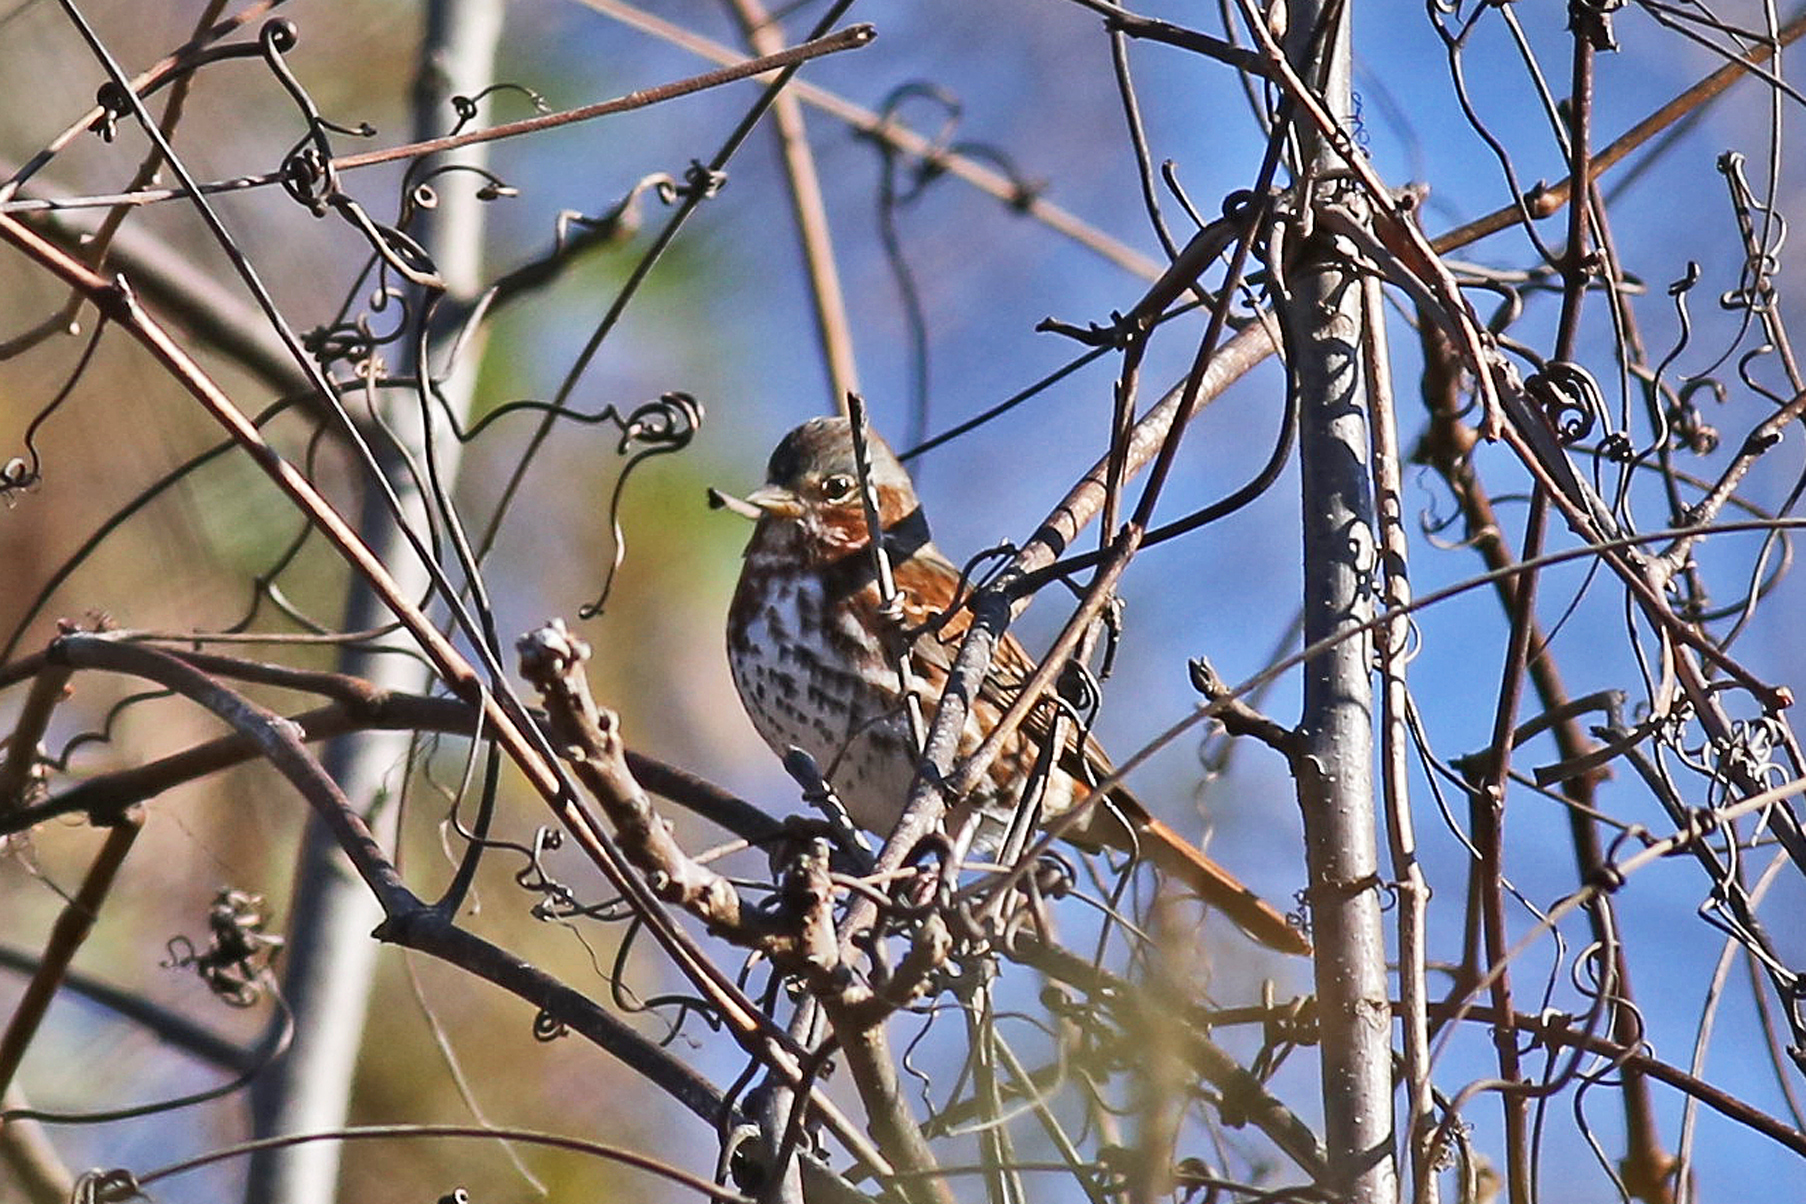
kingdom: Animalia
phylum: Chordata
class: Aves
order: Passeriformes
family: Passerellidae
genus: Passerella
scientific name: Passerella iliaca
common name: Fox sparrow
